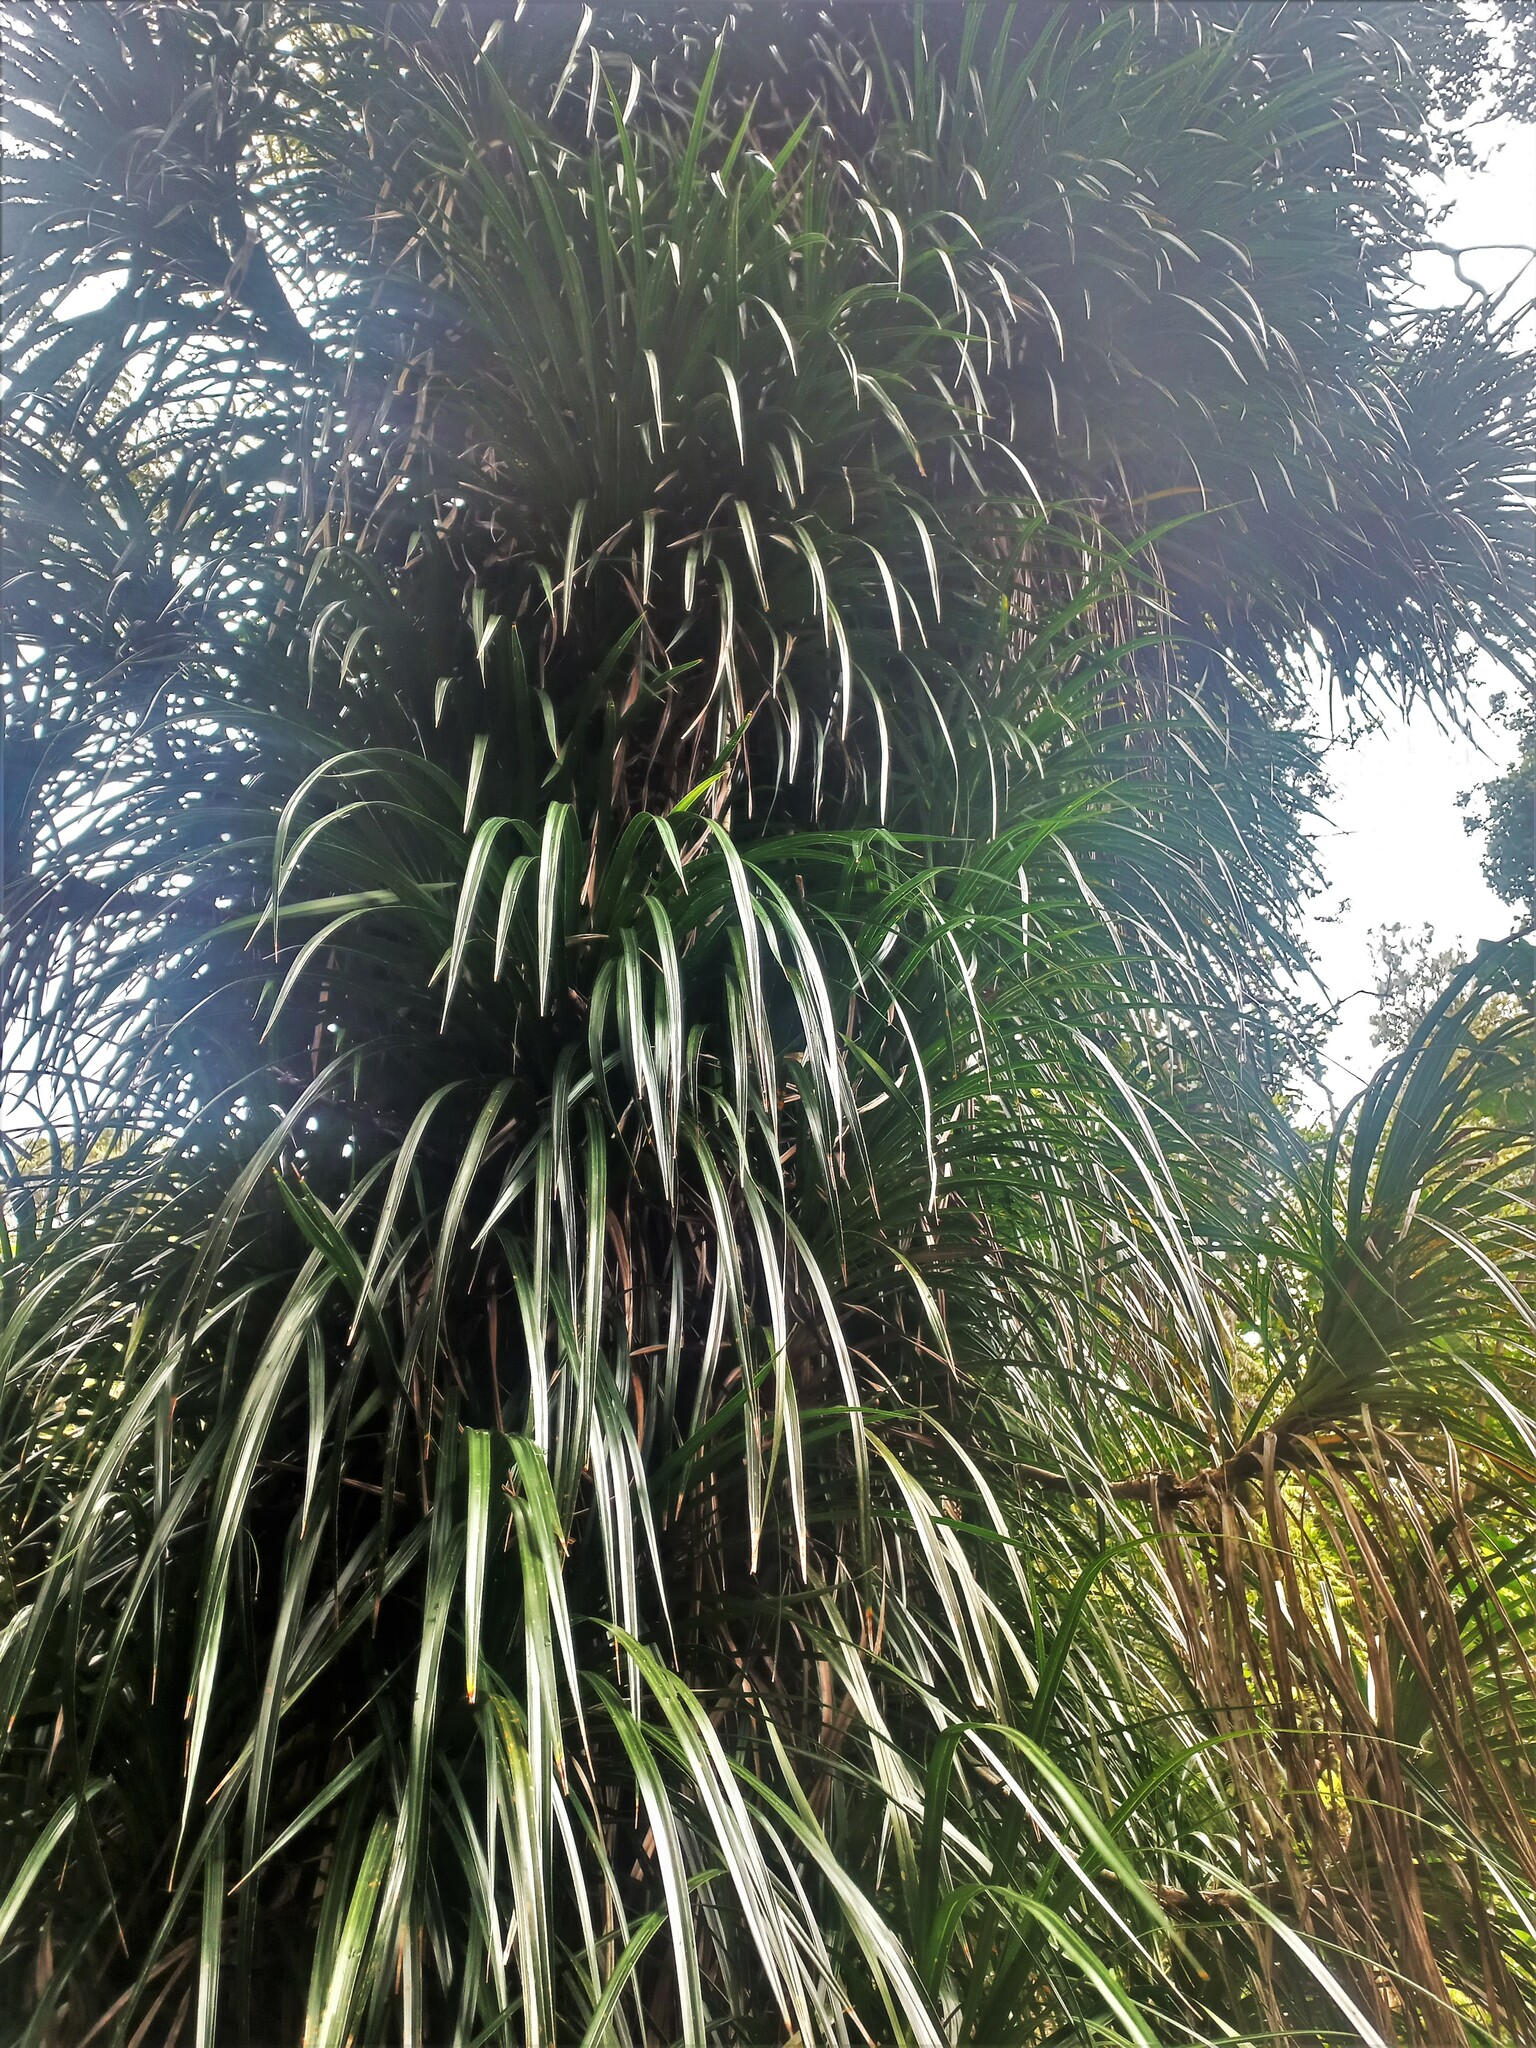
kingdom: Plantae
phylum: Tracheophyta
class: Liliopsida
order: Pandanales
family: Pandanaceae
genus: Freycinetia
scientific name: Freycinetia banksii
